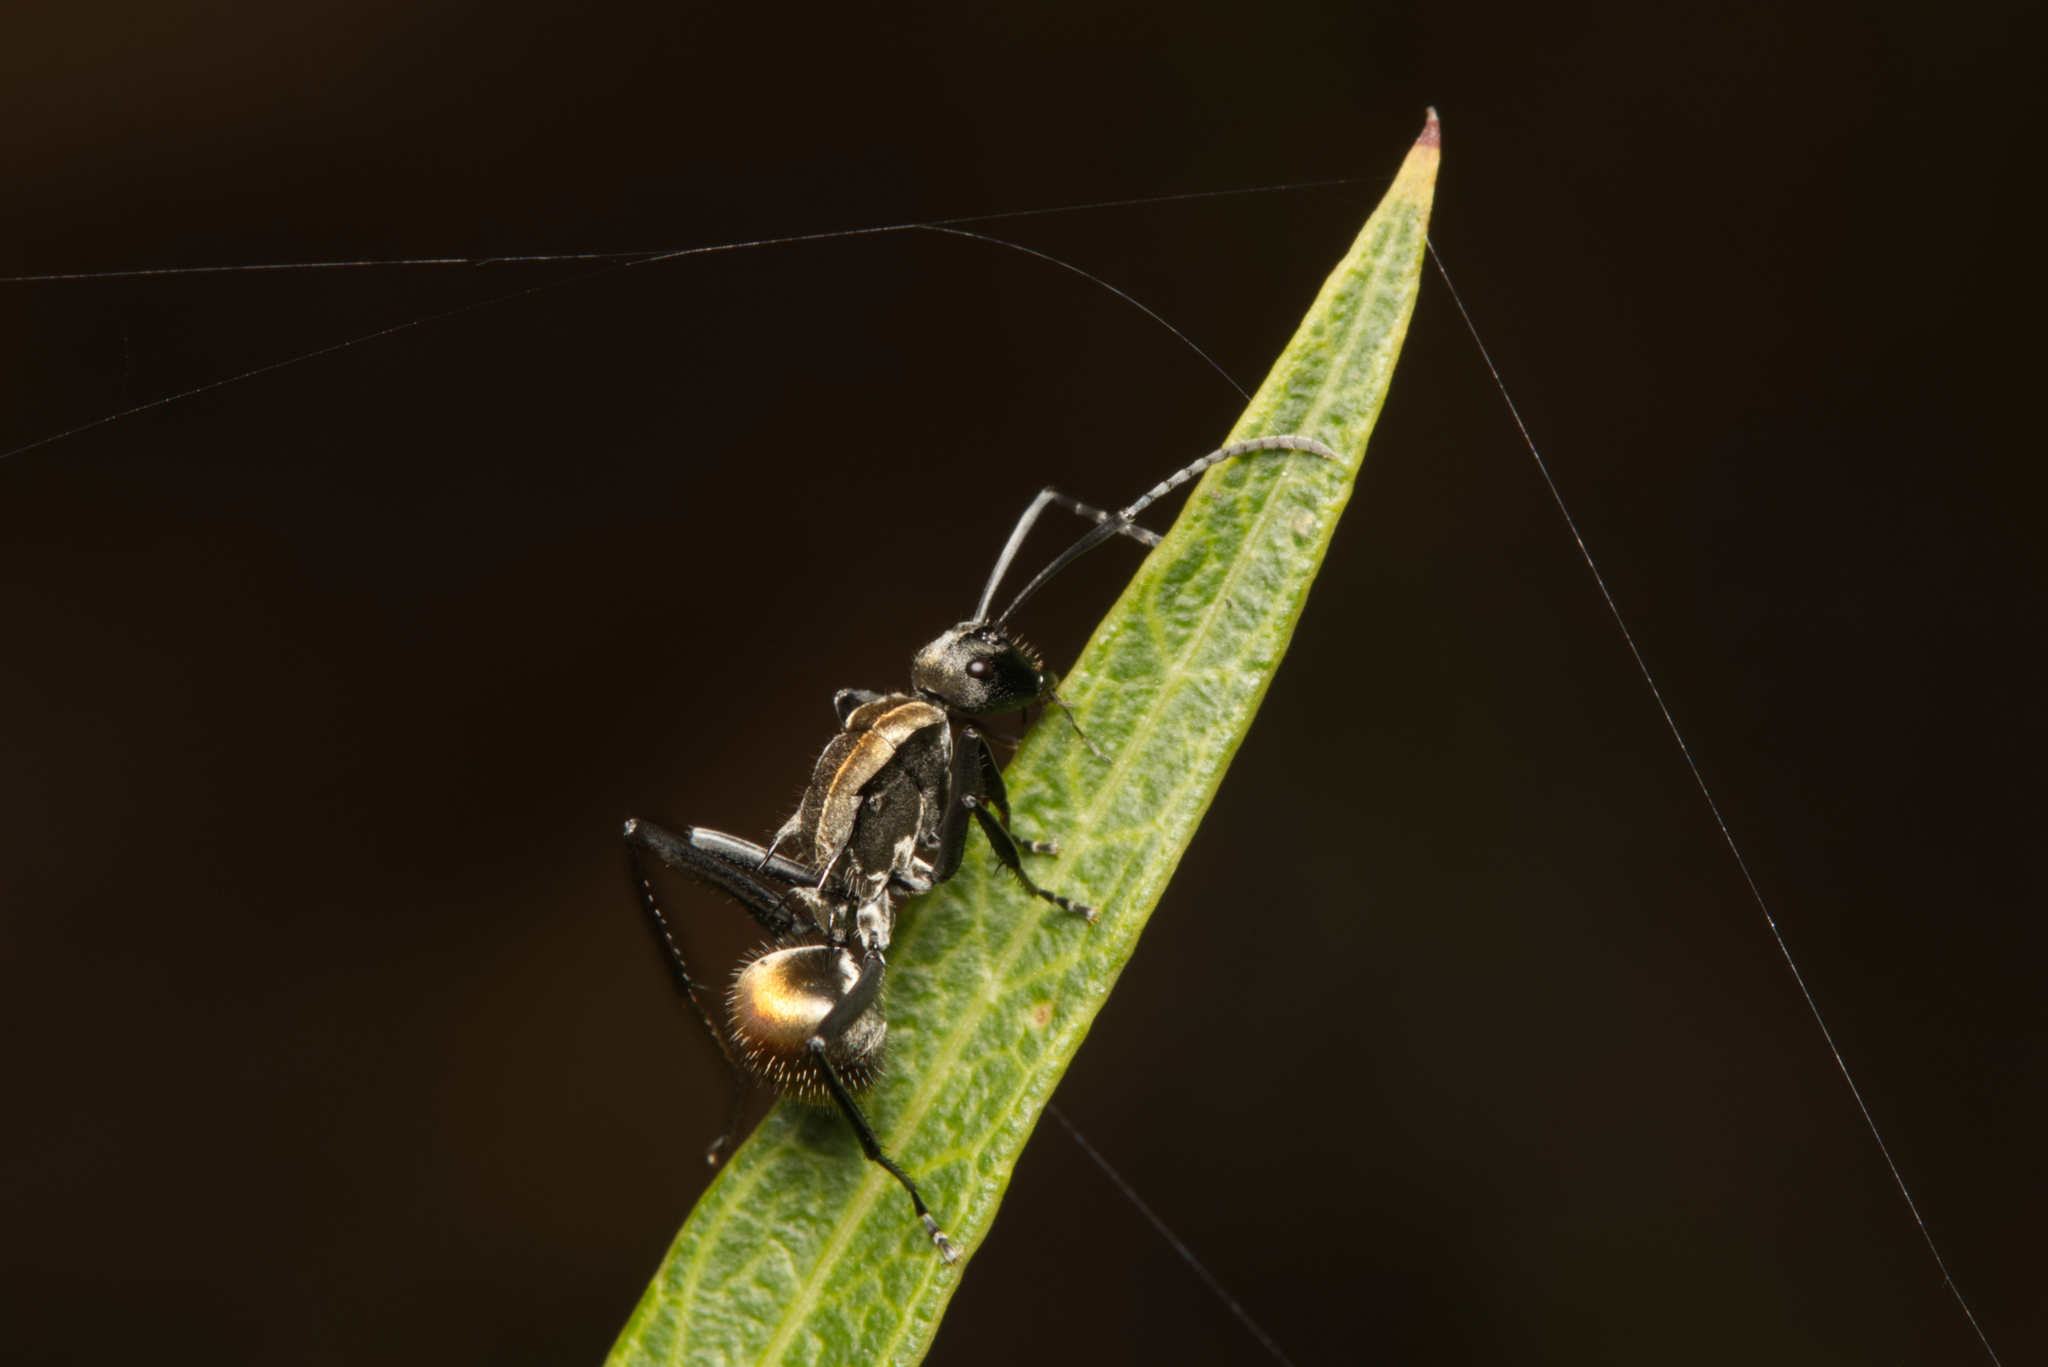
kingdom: Animalia
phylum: Arthropoda
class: Insecta
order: Hymenoptera
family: Formicidae
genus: Polyrhachis
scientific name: Polyrhachis ammon
